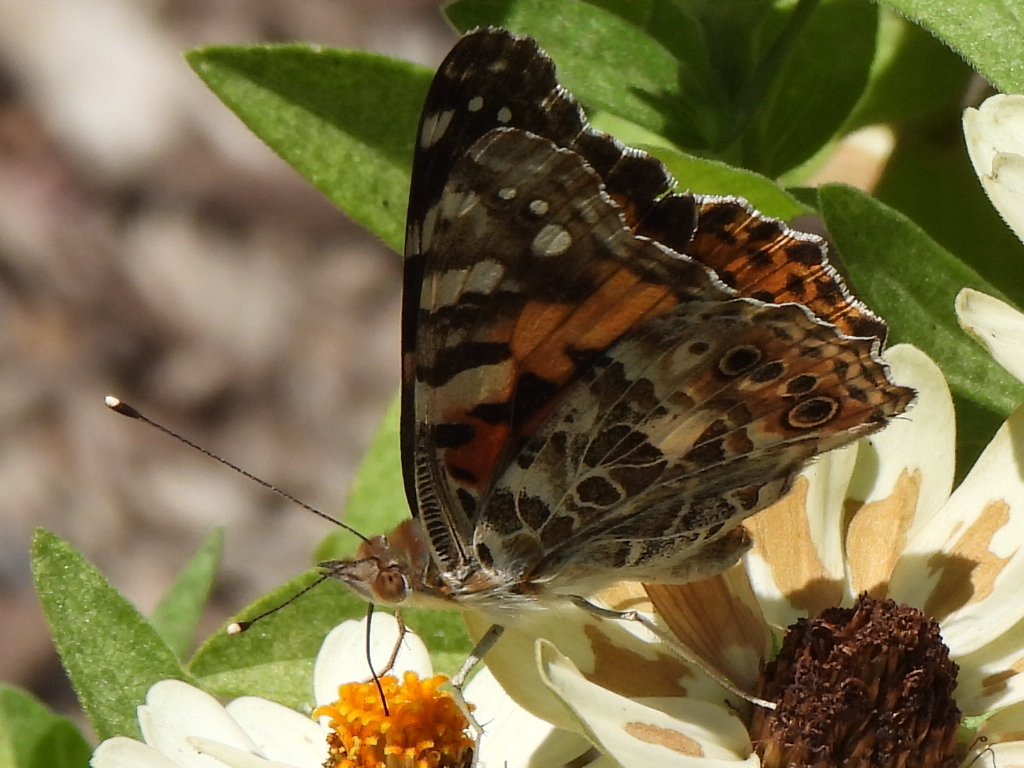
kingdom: Animalia
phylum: Arthropoda
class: Insecta
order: Lepidoptera
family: Nymphalidae
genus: Vanessa
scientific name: Vanessa cardui
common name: Painted lady
